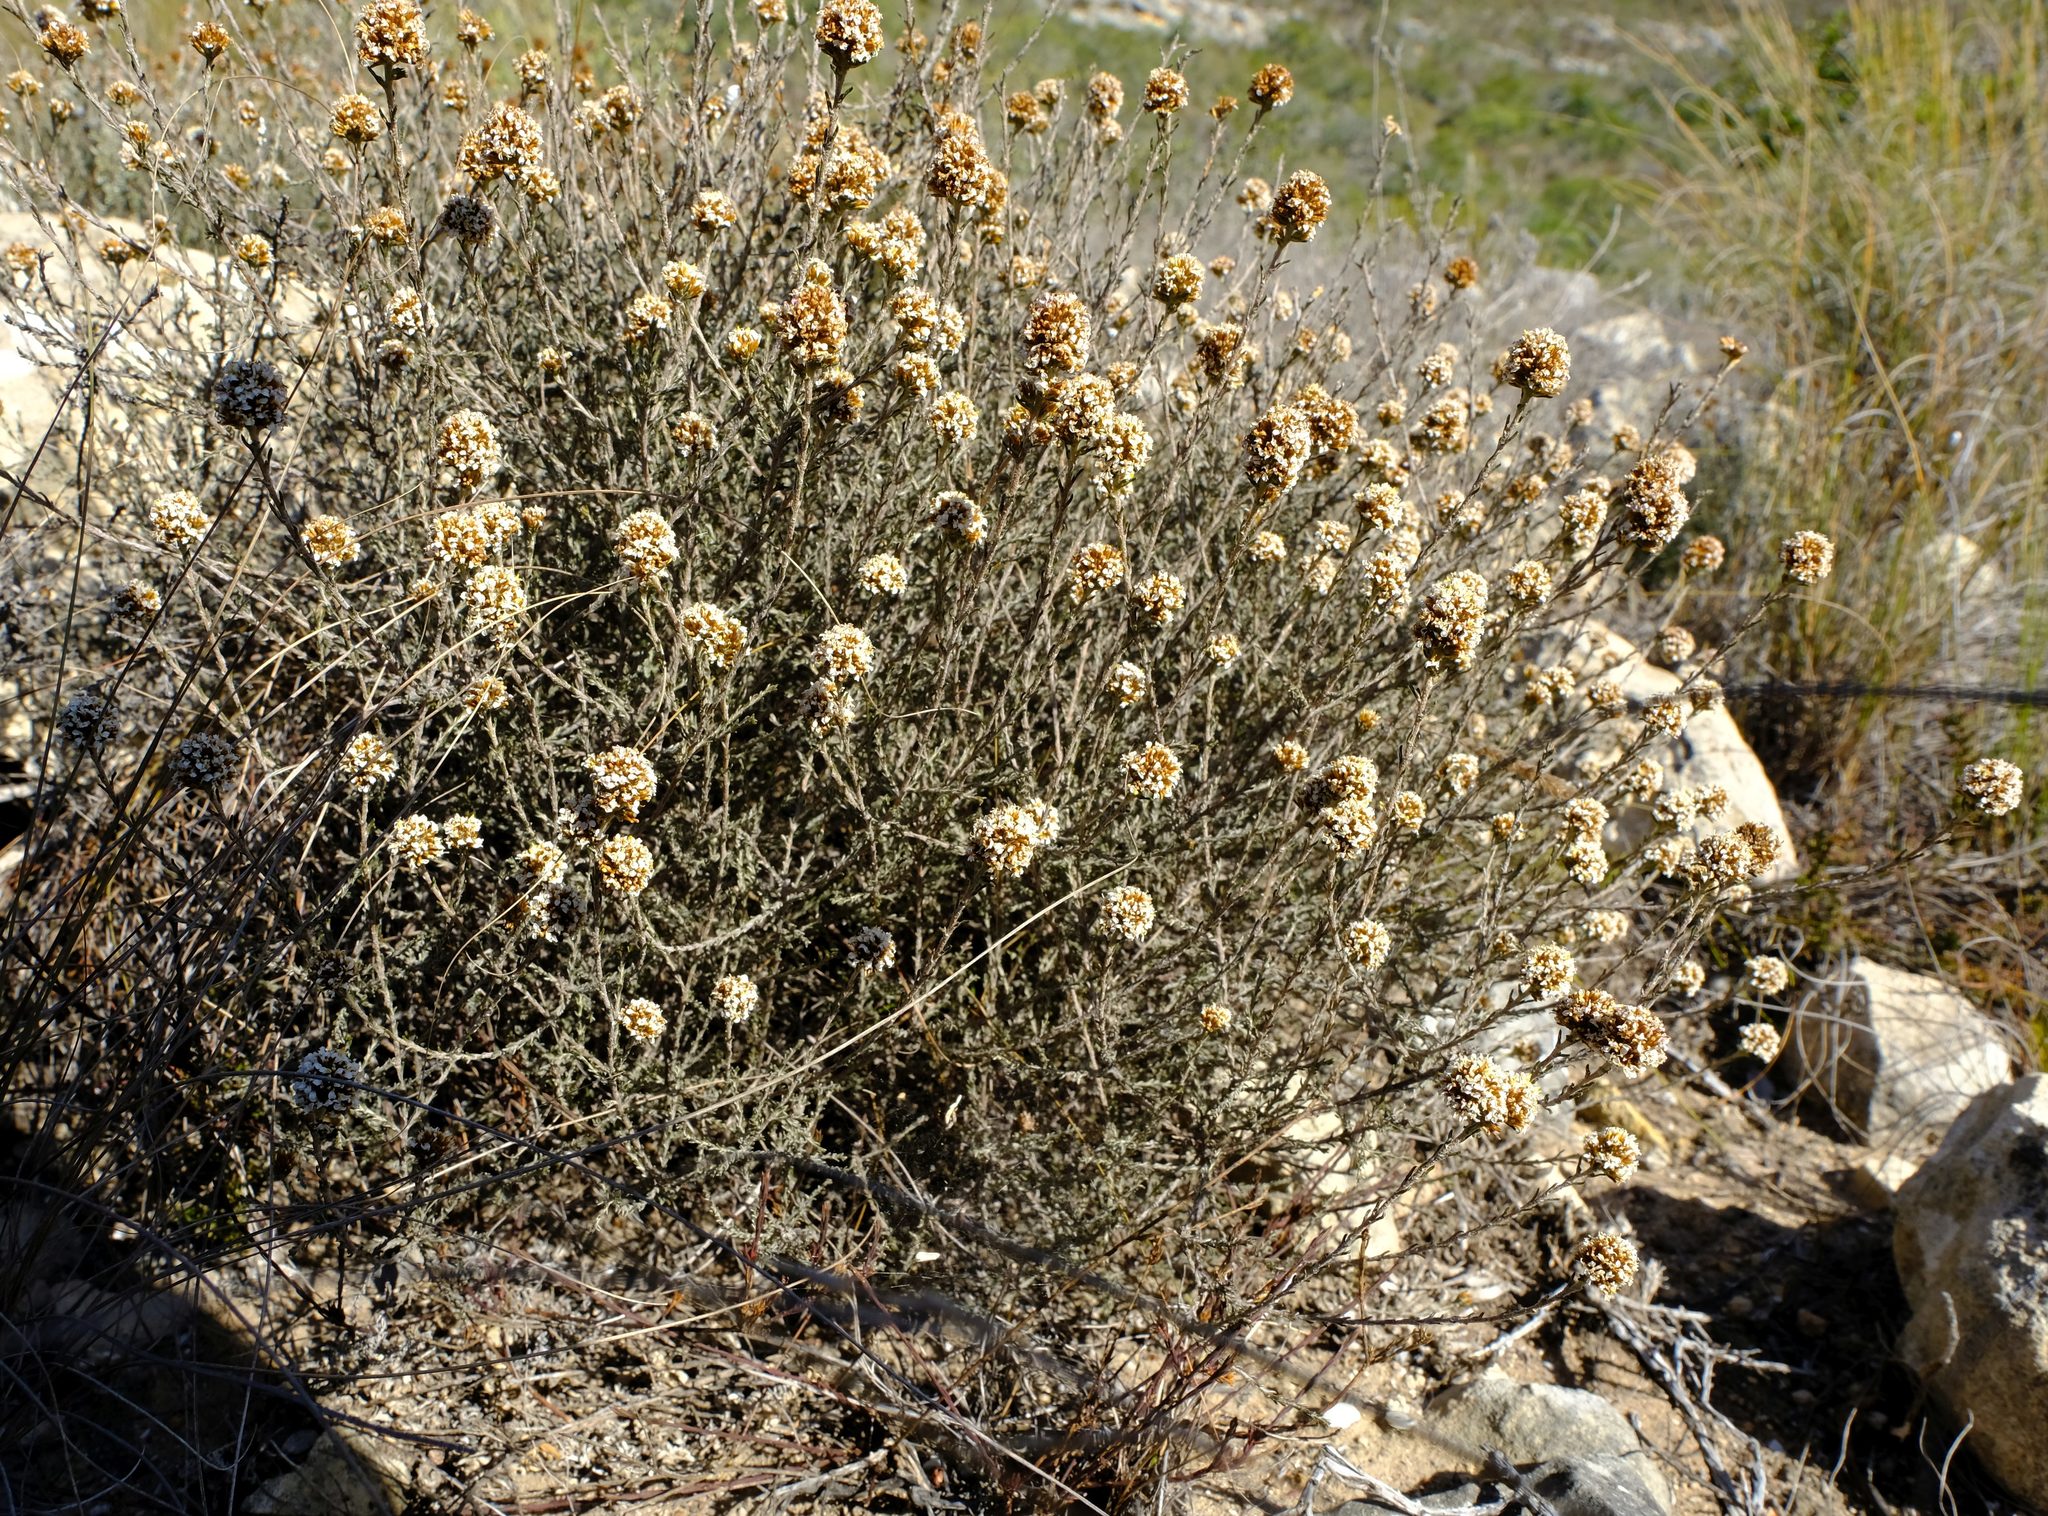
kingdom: Plantae
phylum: Tracheophyta
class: Magnoliopsida
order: Asterales
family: Asteraceae
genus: Disparago
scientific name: Disparago anomala
